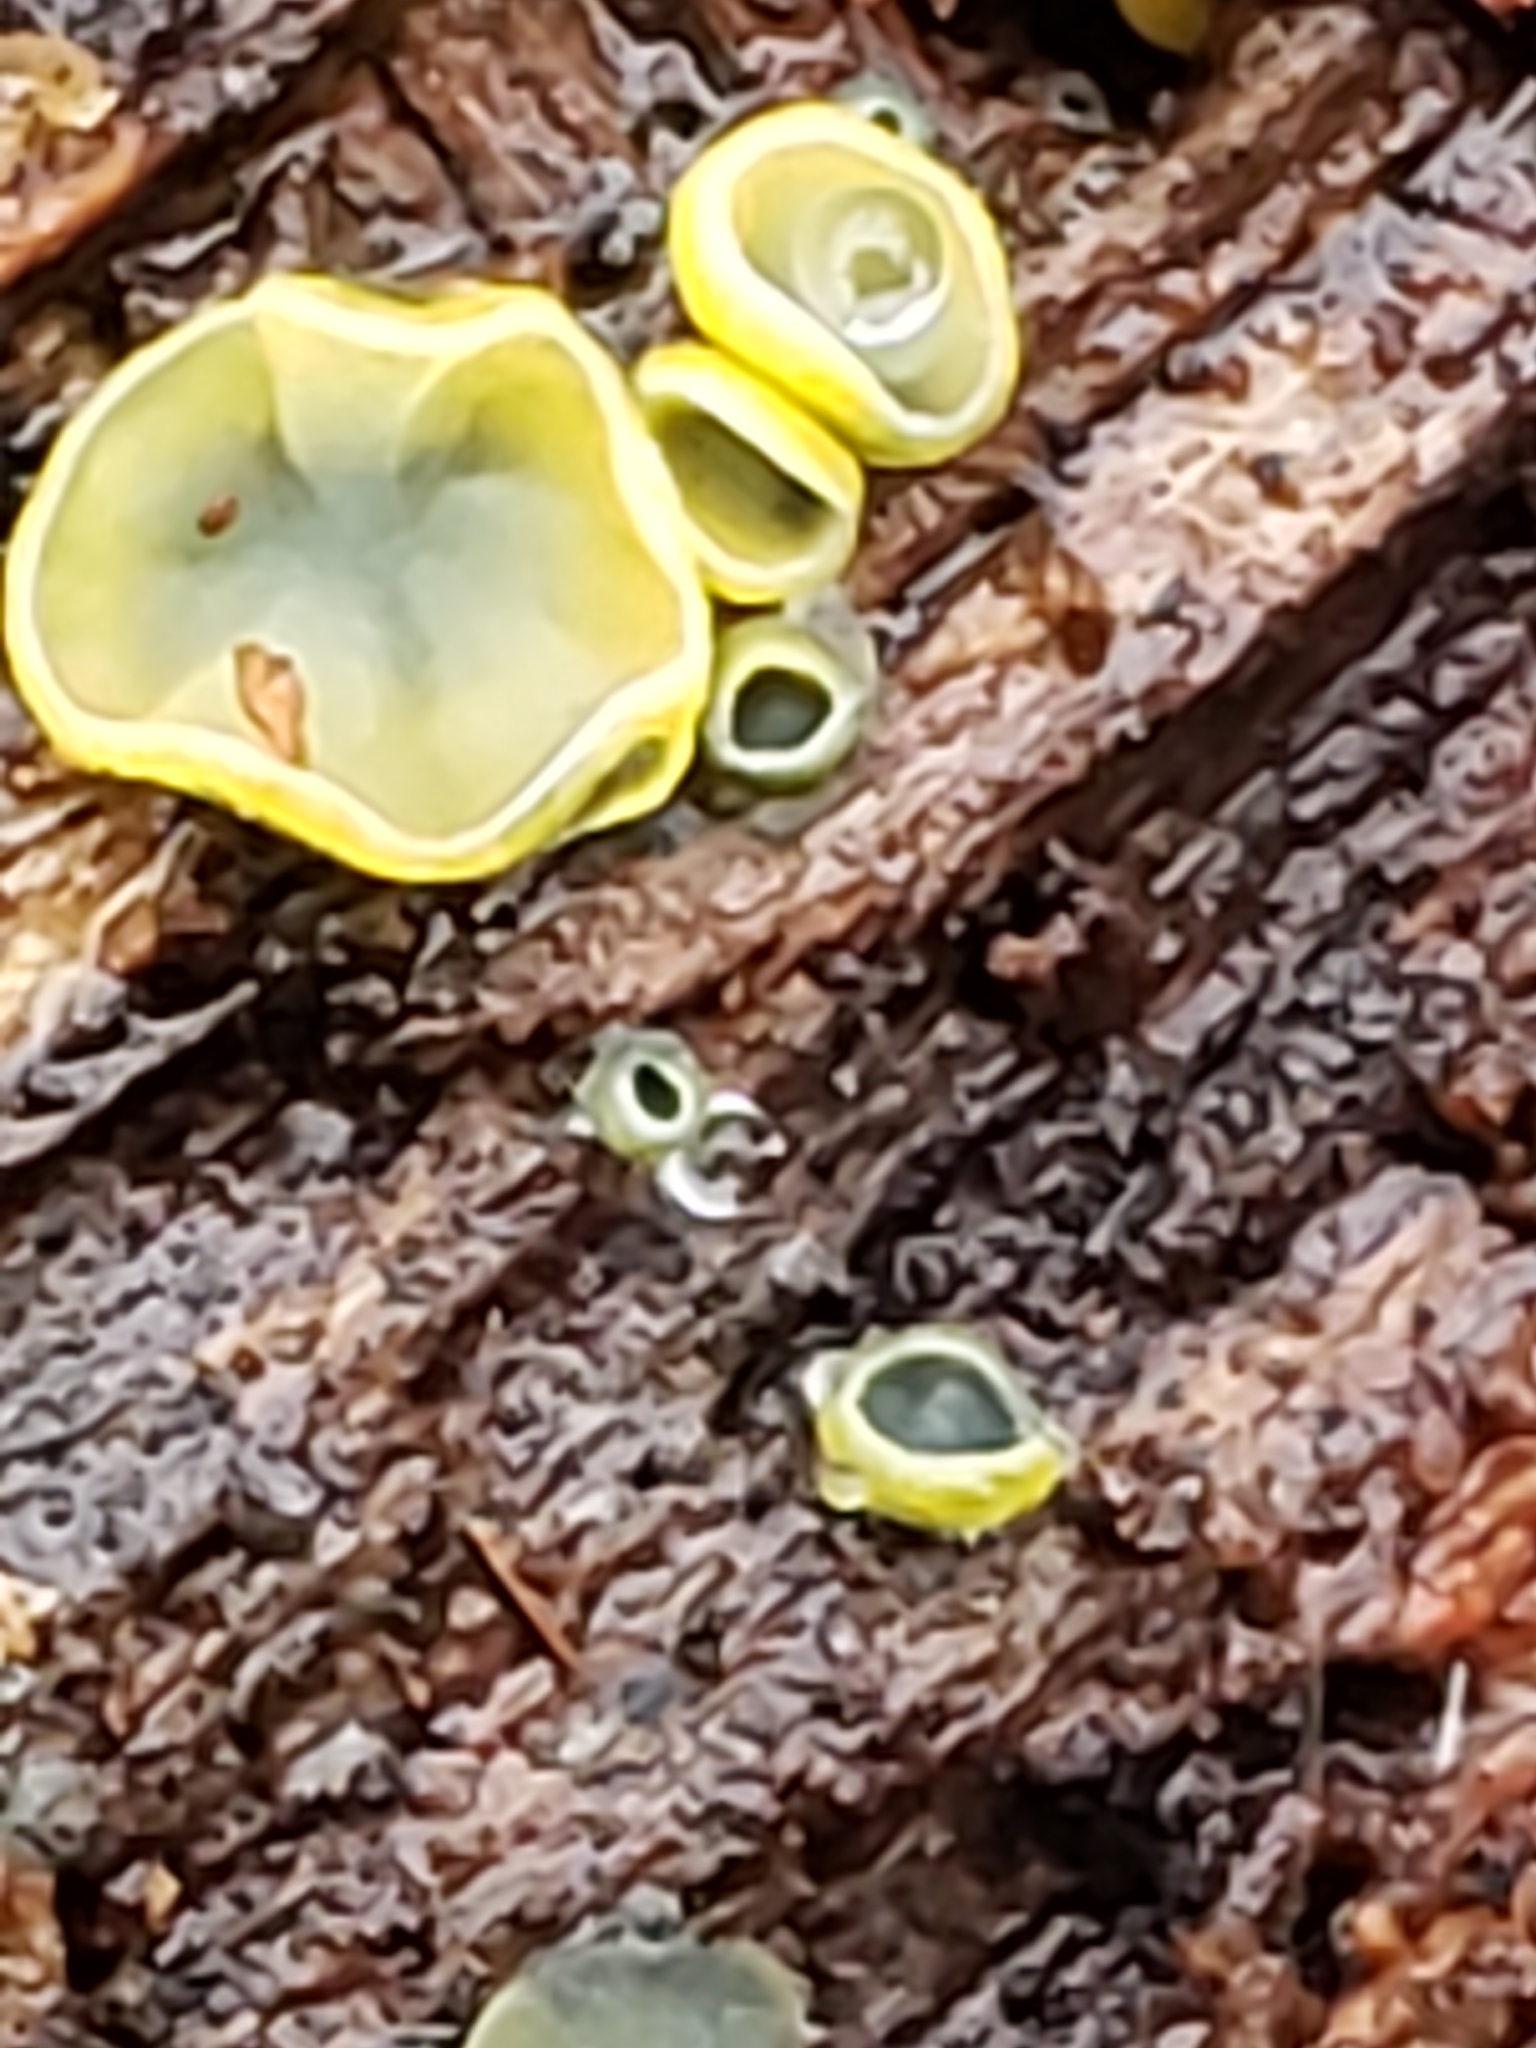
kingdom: Fungi
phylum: Ascomycota
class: Leotiomycetes
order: Helotiales
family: Chlorospleniaceae
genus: Chlorosplenium
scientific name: Chlorosplenium chlora
